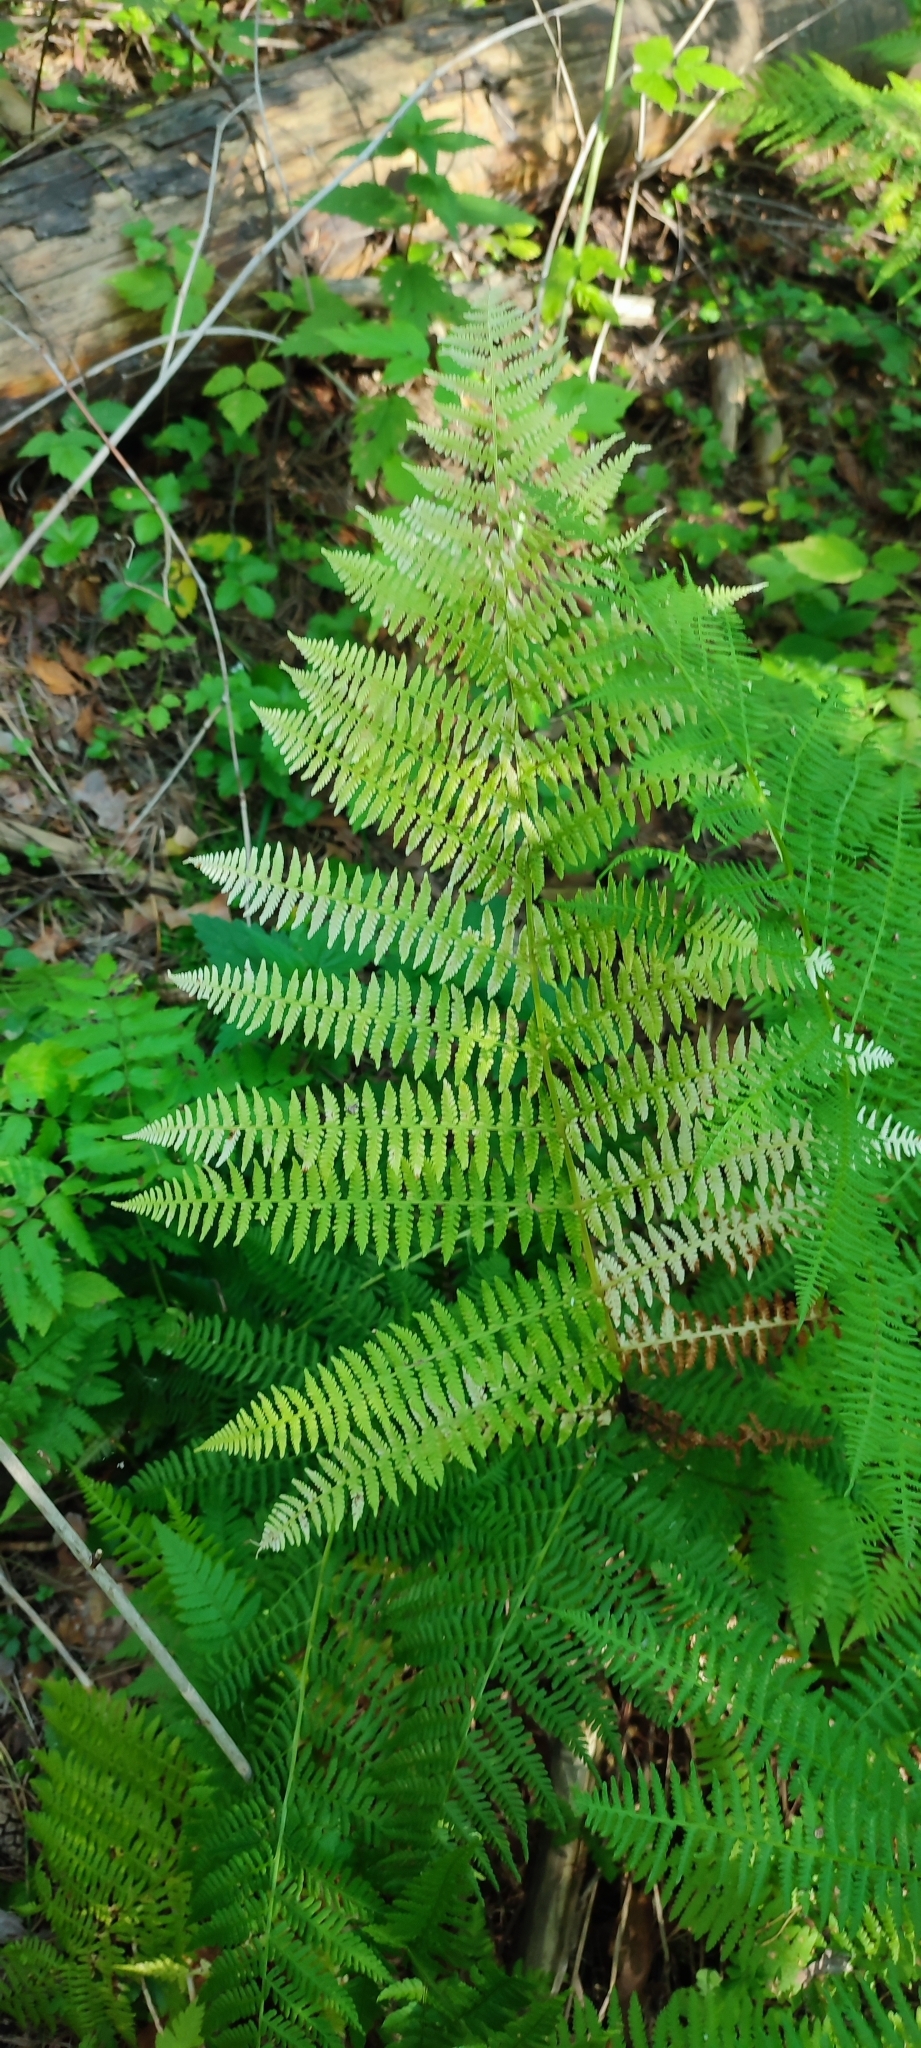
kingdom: Plantae
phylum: Tracheophyta
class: Polypodiopsida
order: Polypodiales
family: Athyriaceae
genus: Athyrium
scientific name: Athyrium filix-femina
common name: Lady fern
